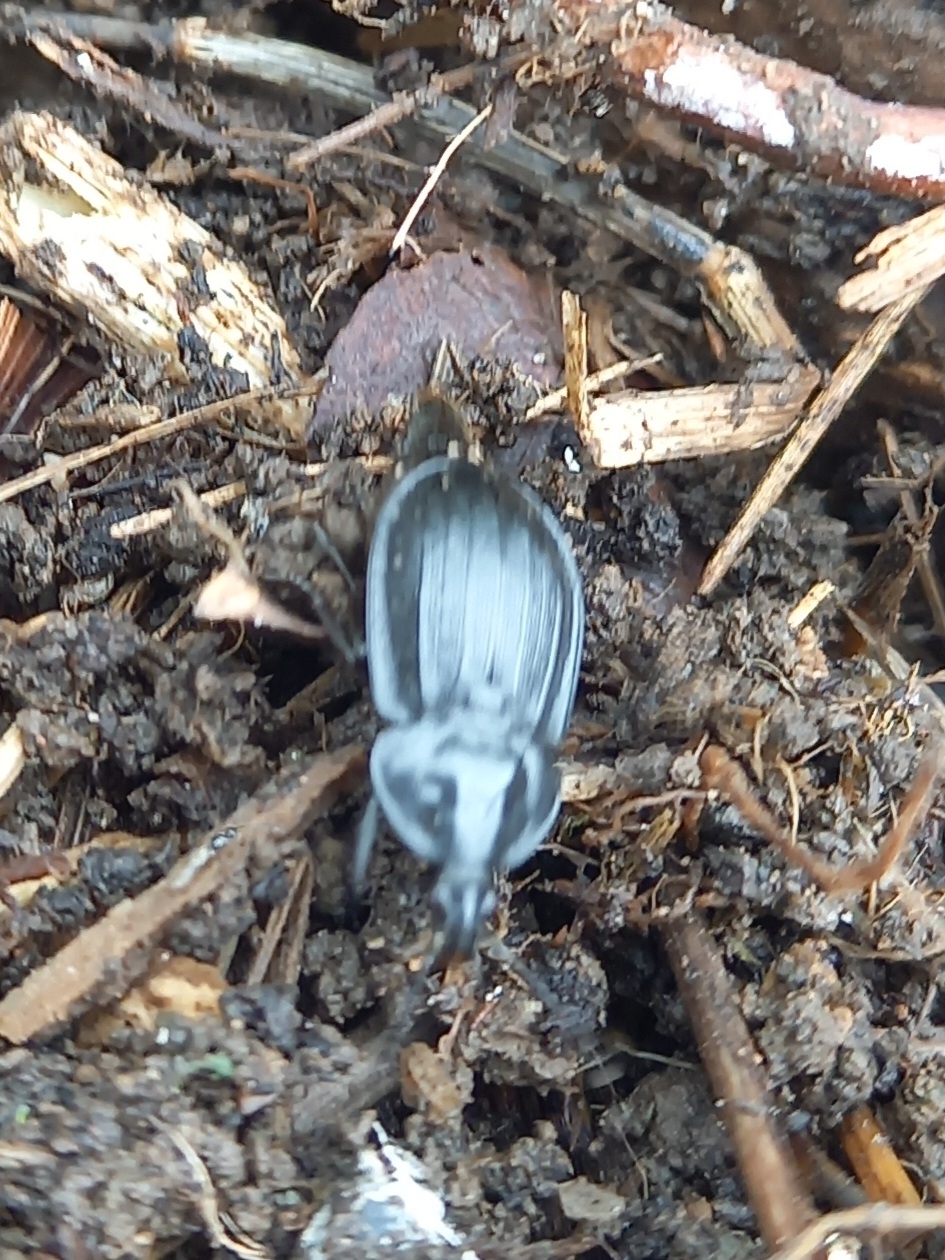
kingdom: Animalia
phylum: Arthropoda
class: Insecta
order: Coleoptera
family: Staphylinidae
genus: Silpha
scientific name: Silpha atrata
